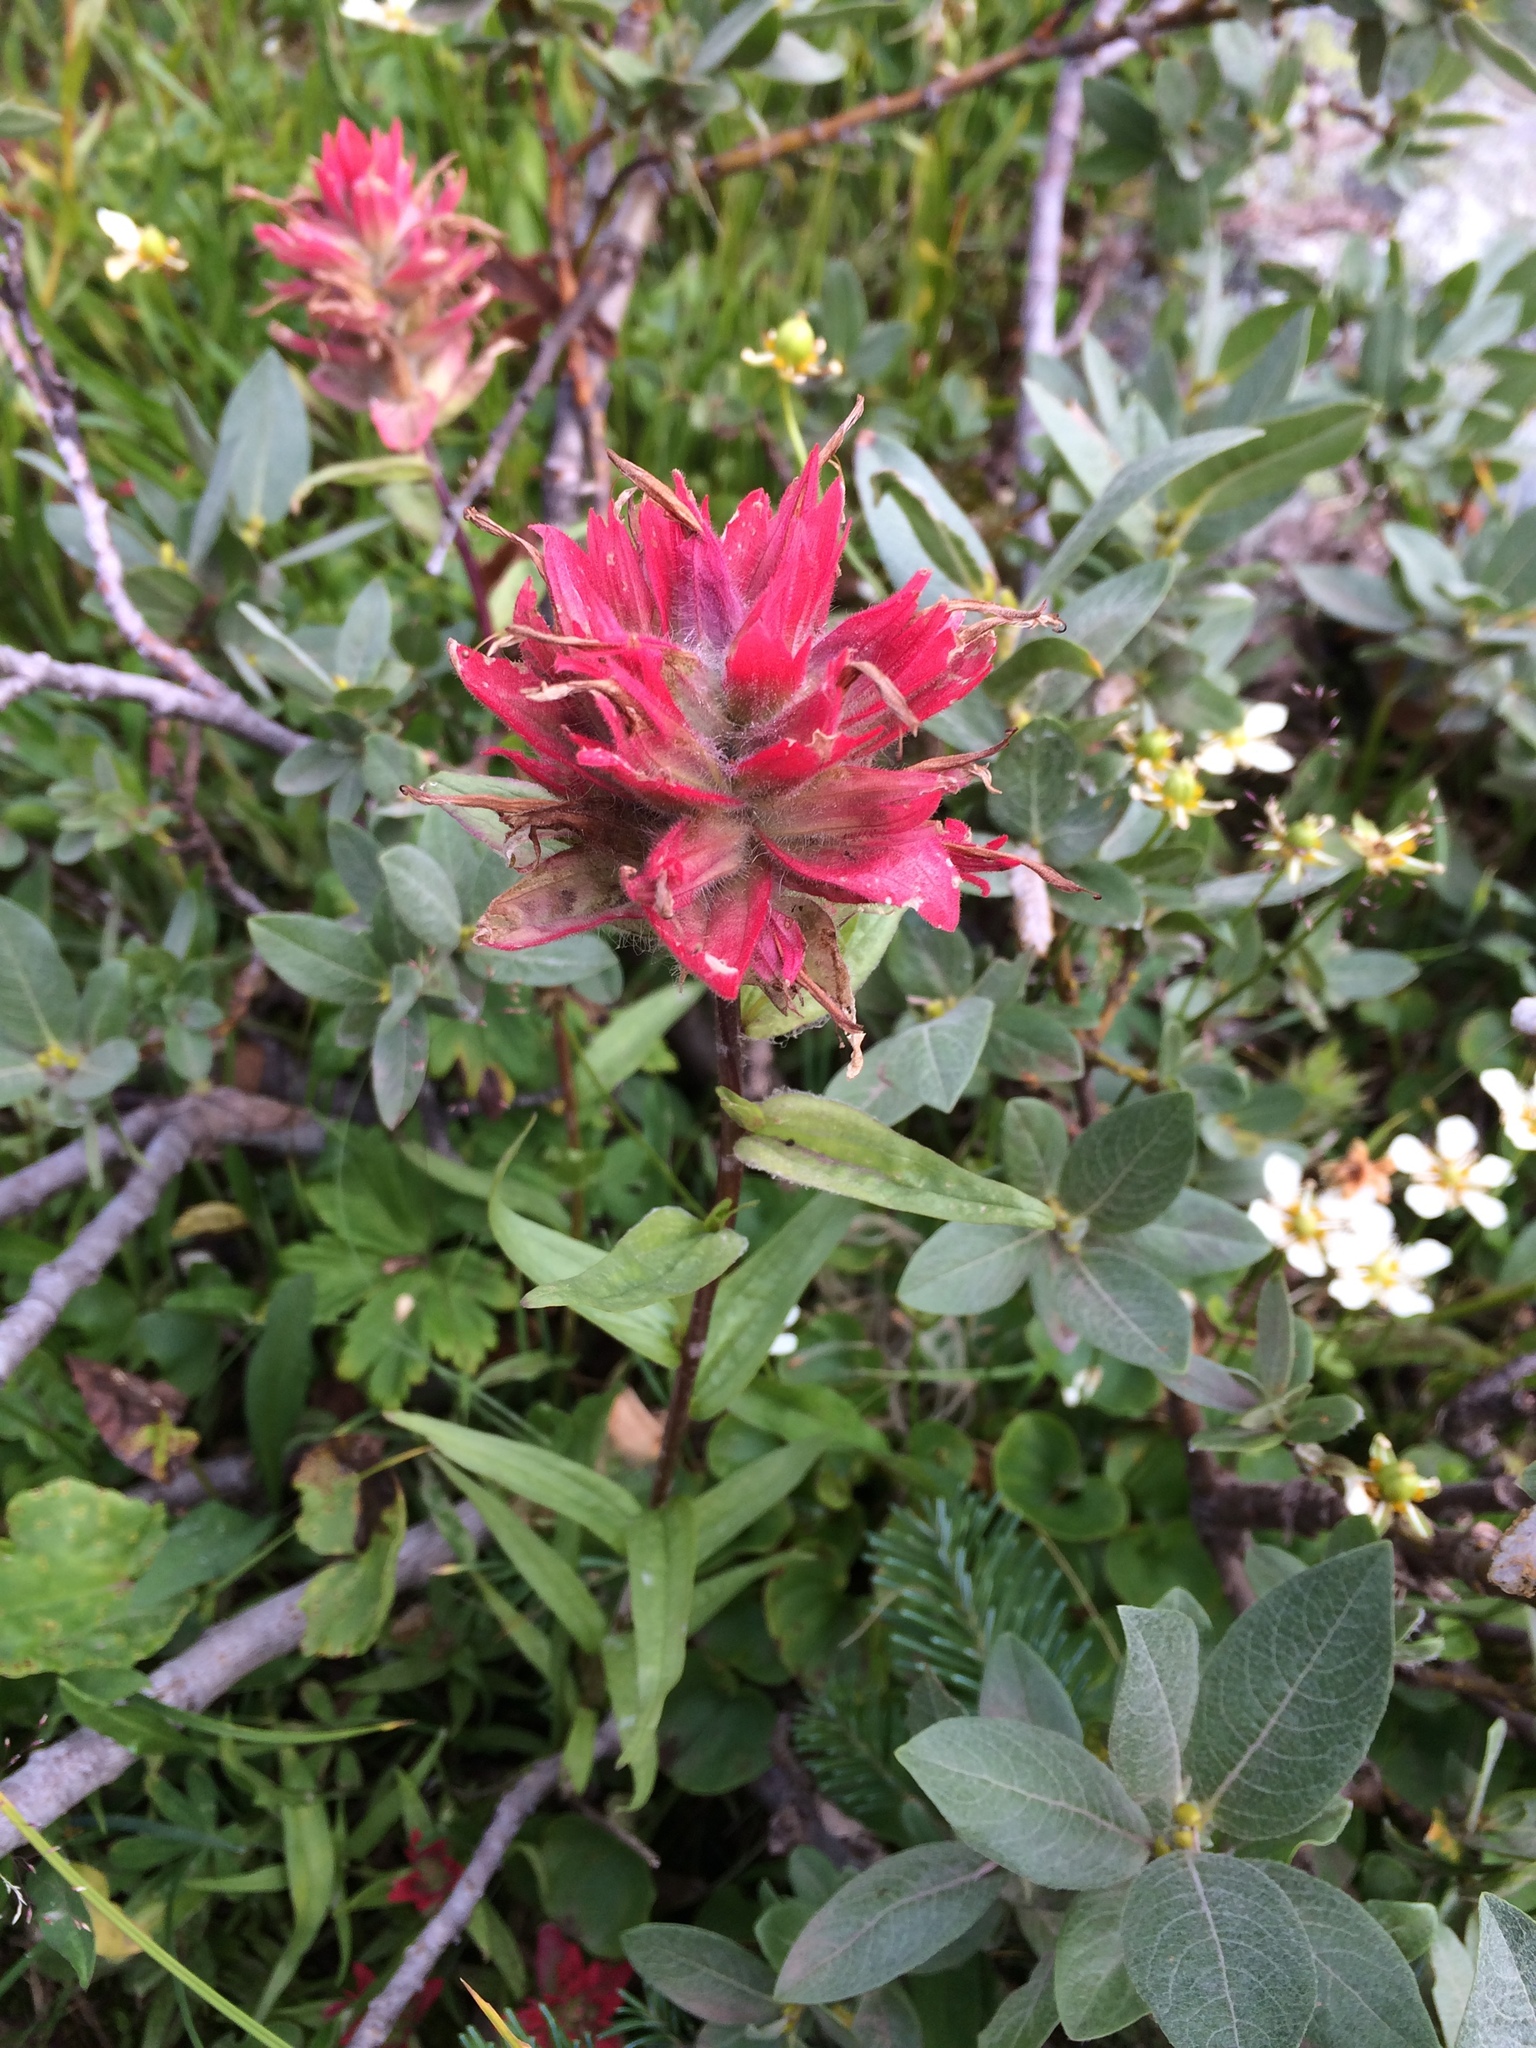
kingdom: Plantae
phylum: Tracheophyta
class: Magnoliopsida
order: Lamiales
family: Orobanchaceae
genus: Castilleja
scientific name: Castilleja miniata
